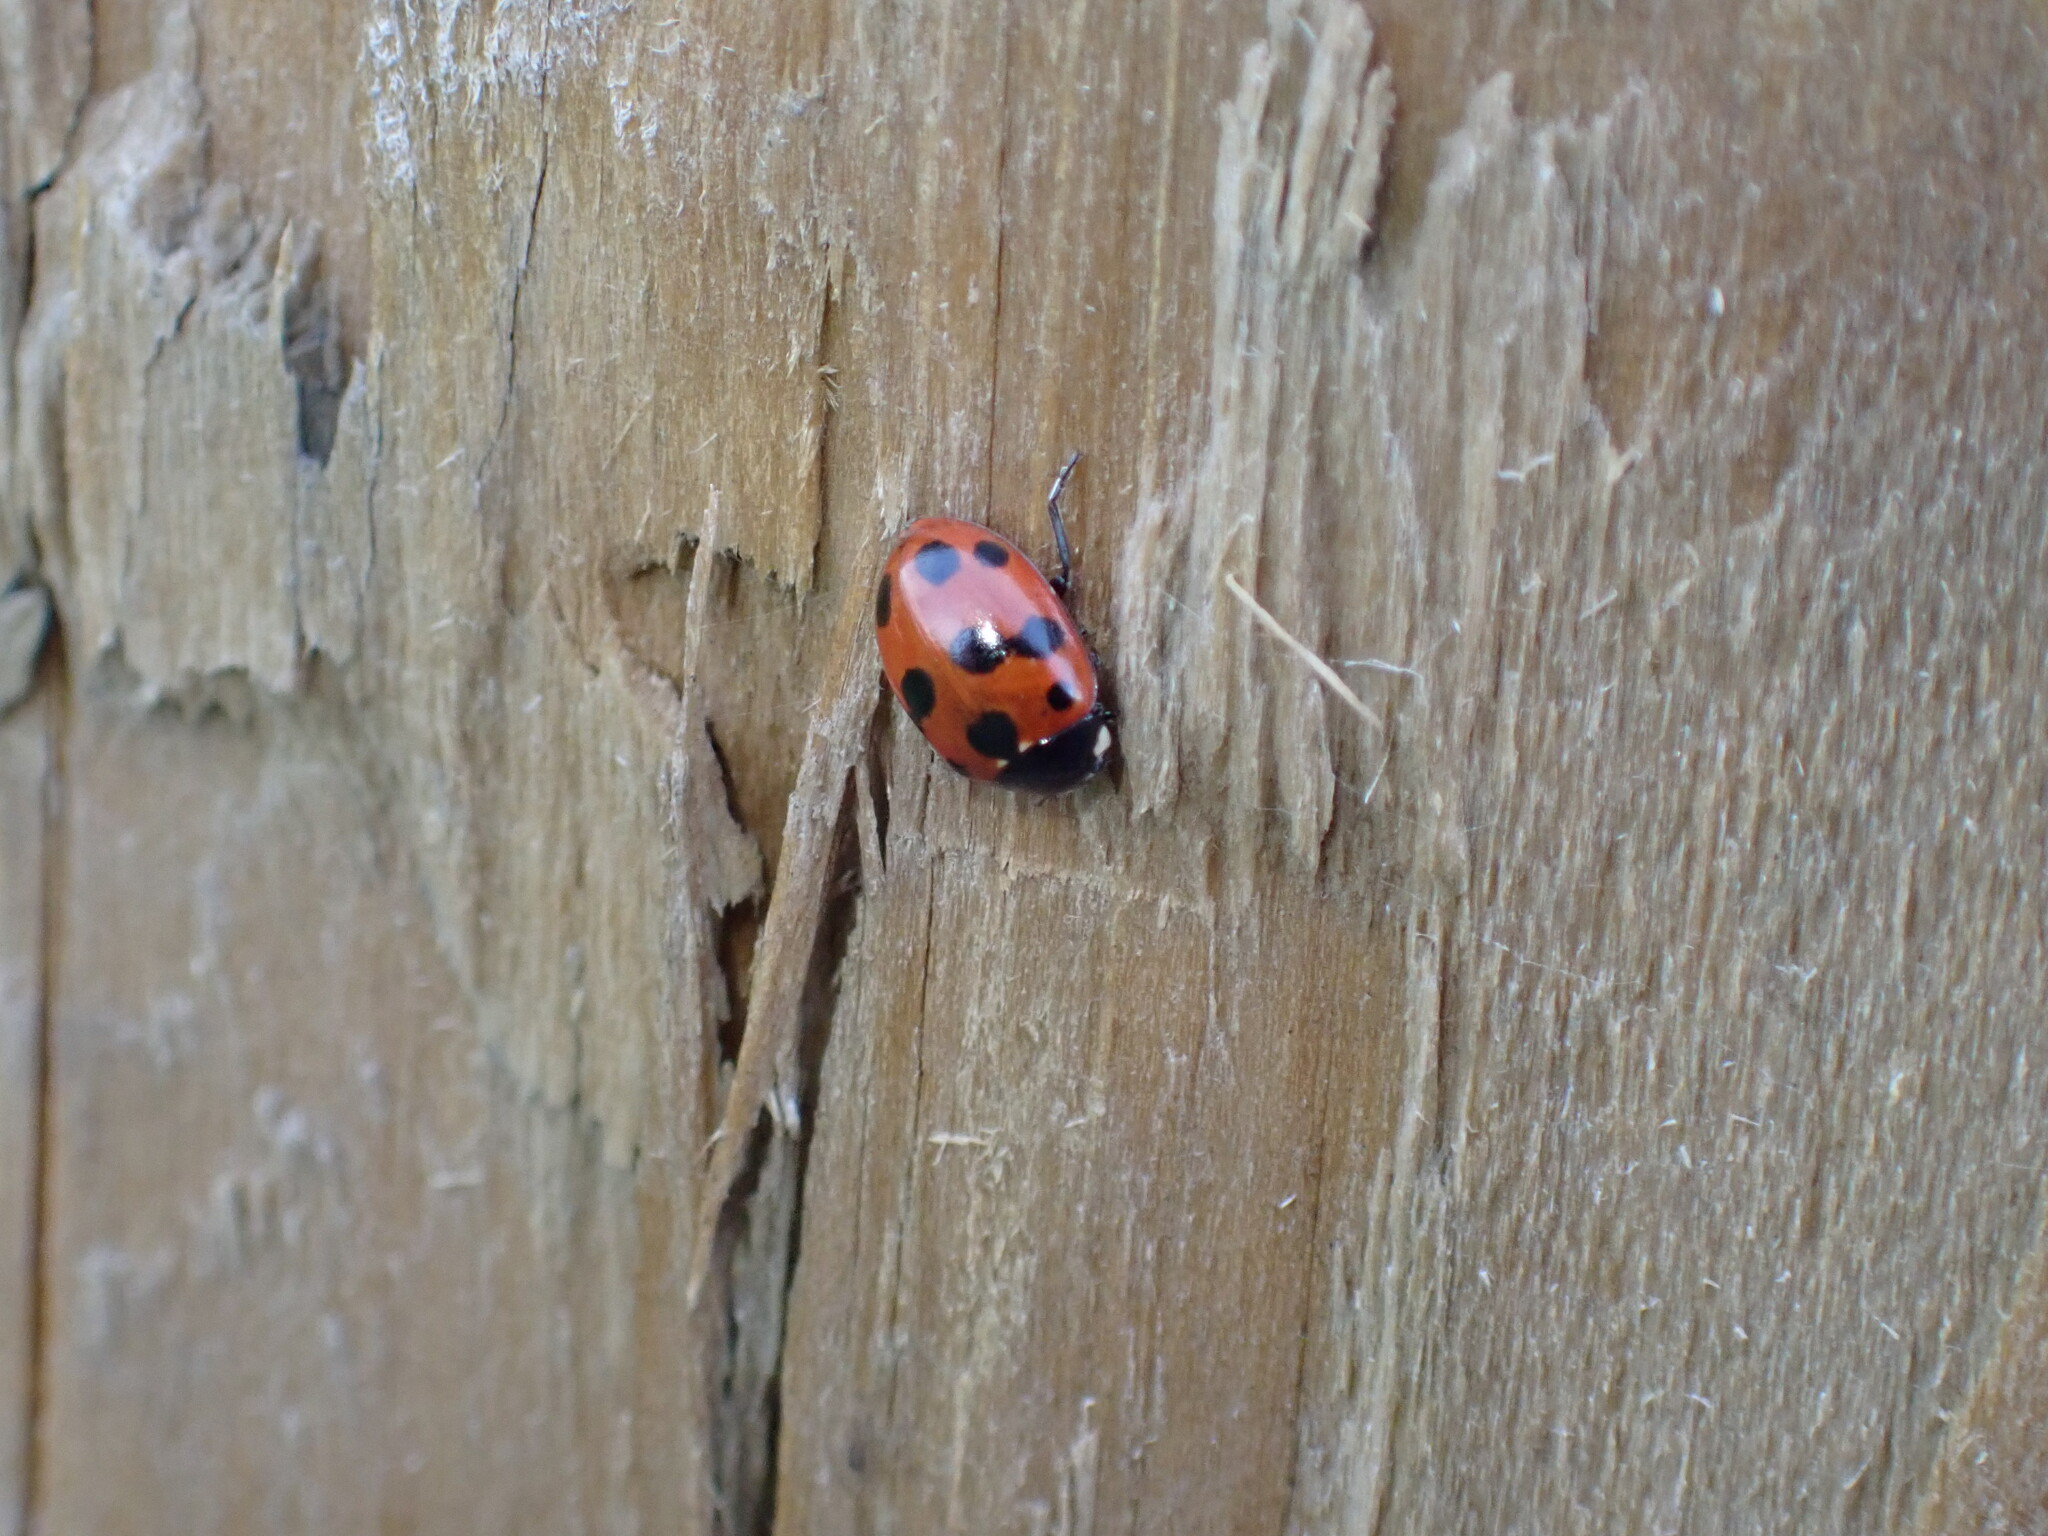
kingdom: Animalia
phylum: Arthropoda
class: Insecta
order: Coleoptera
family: Coccinellidae
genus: Coccinella
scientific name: Coccinella undecimpunctata
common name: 11-spot ladybird
